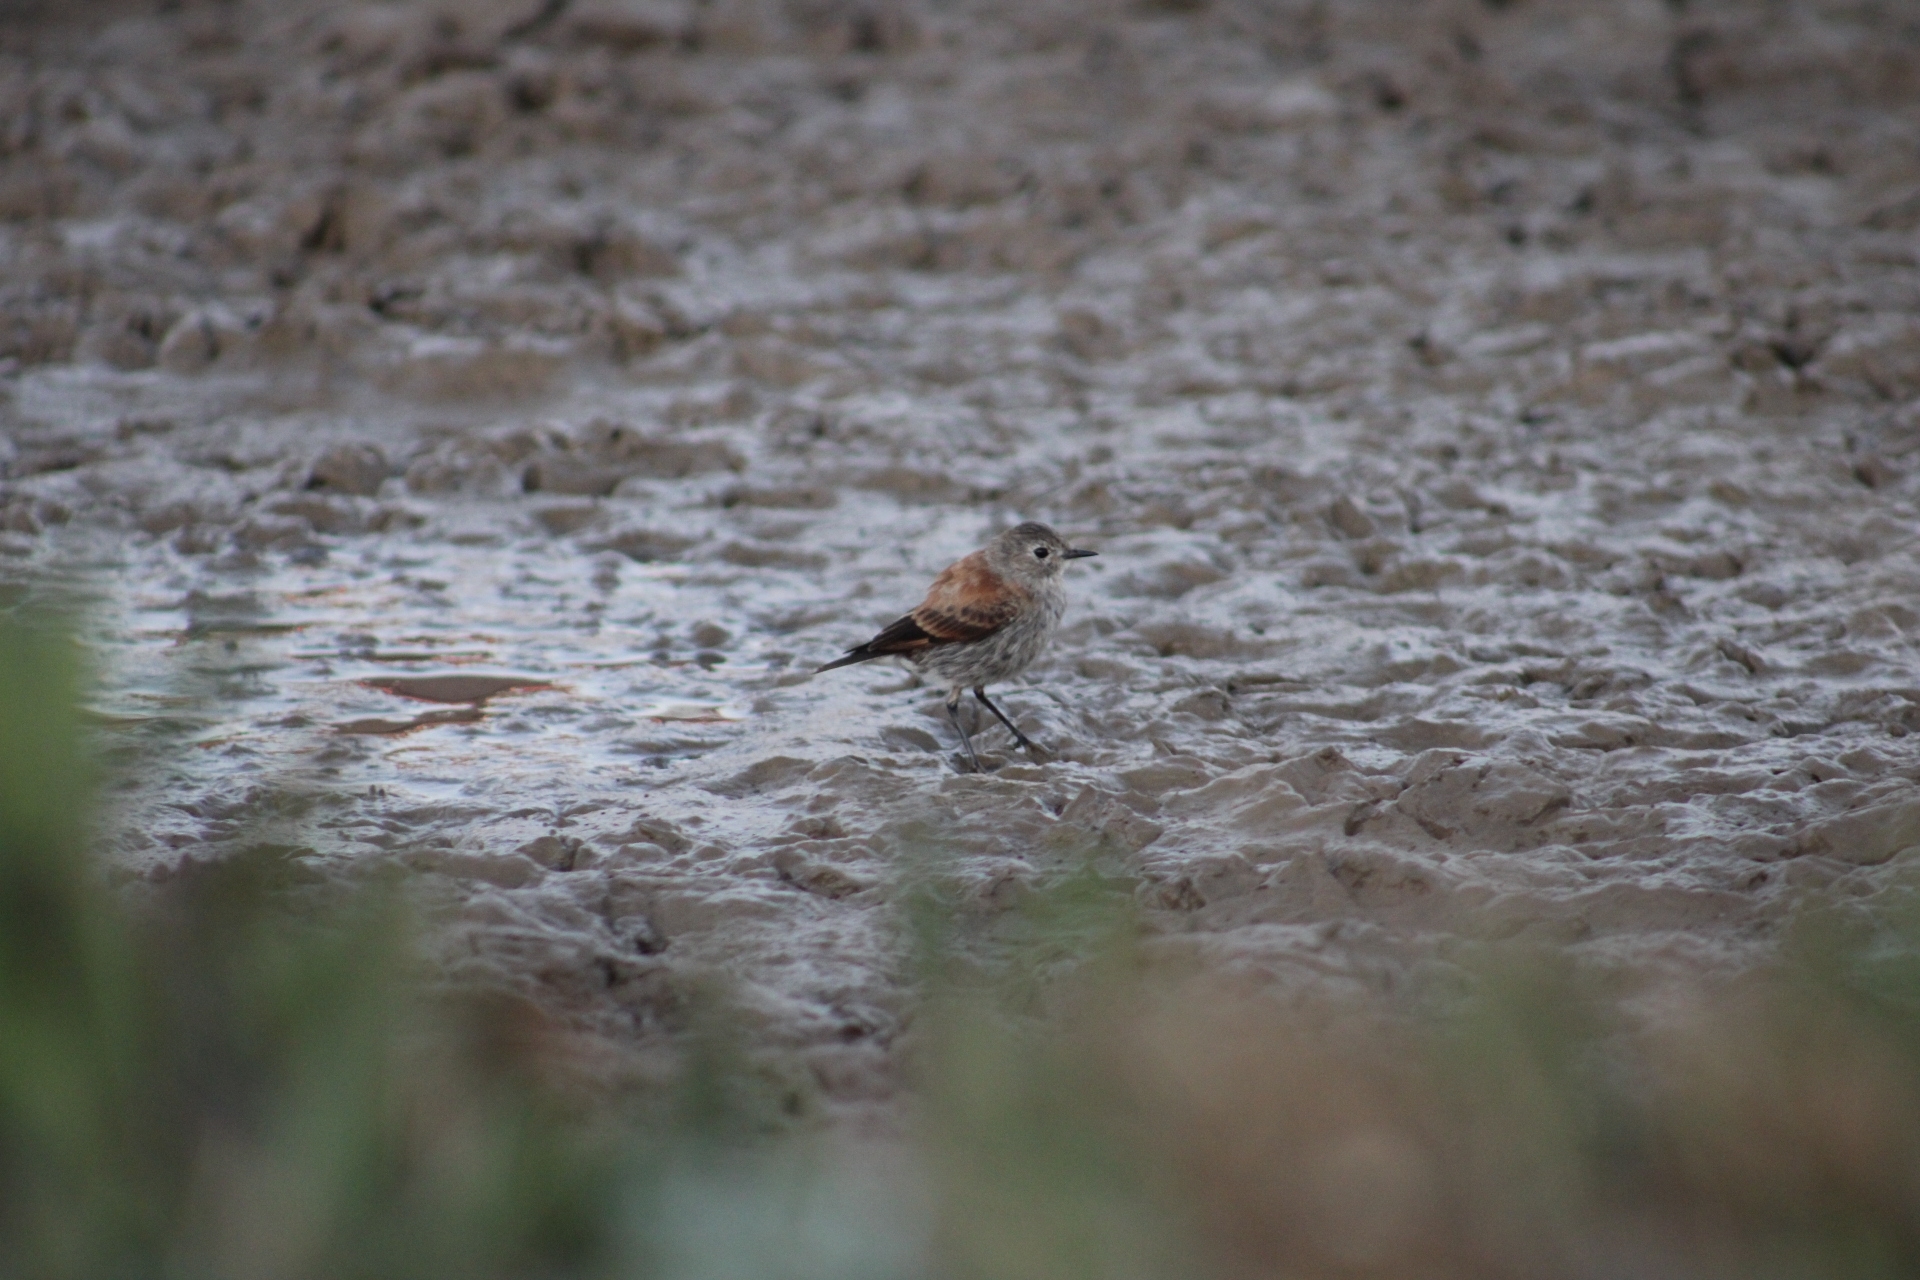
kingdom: Animalia
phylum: Chordata
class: Aves
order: Passeriformes
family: Tyrannidae
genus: Lessonia
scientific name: Lessonia rufa
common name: Austral negrito
